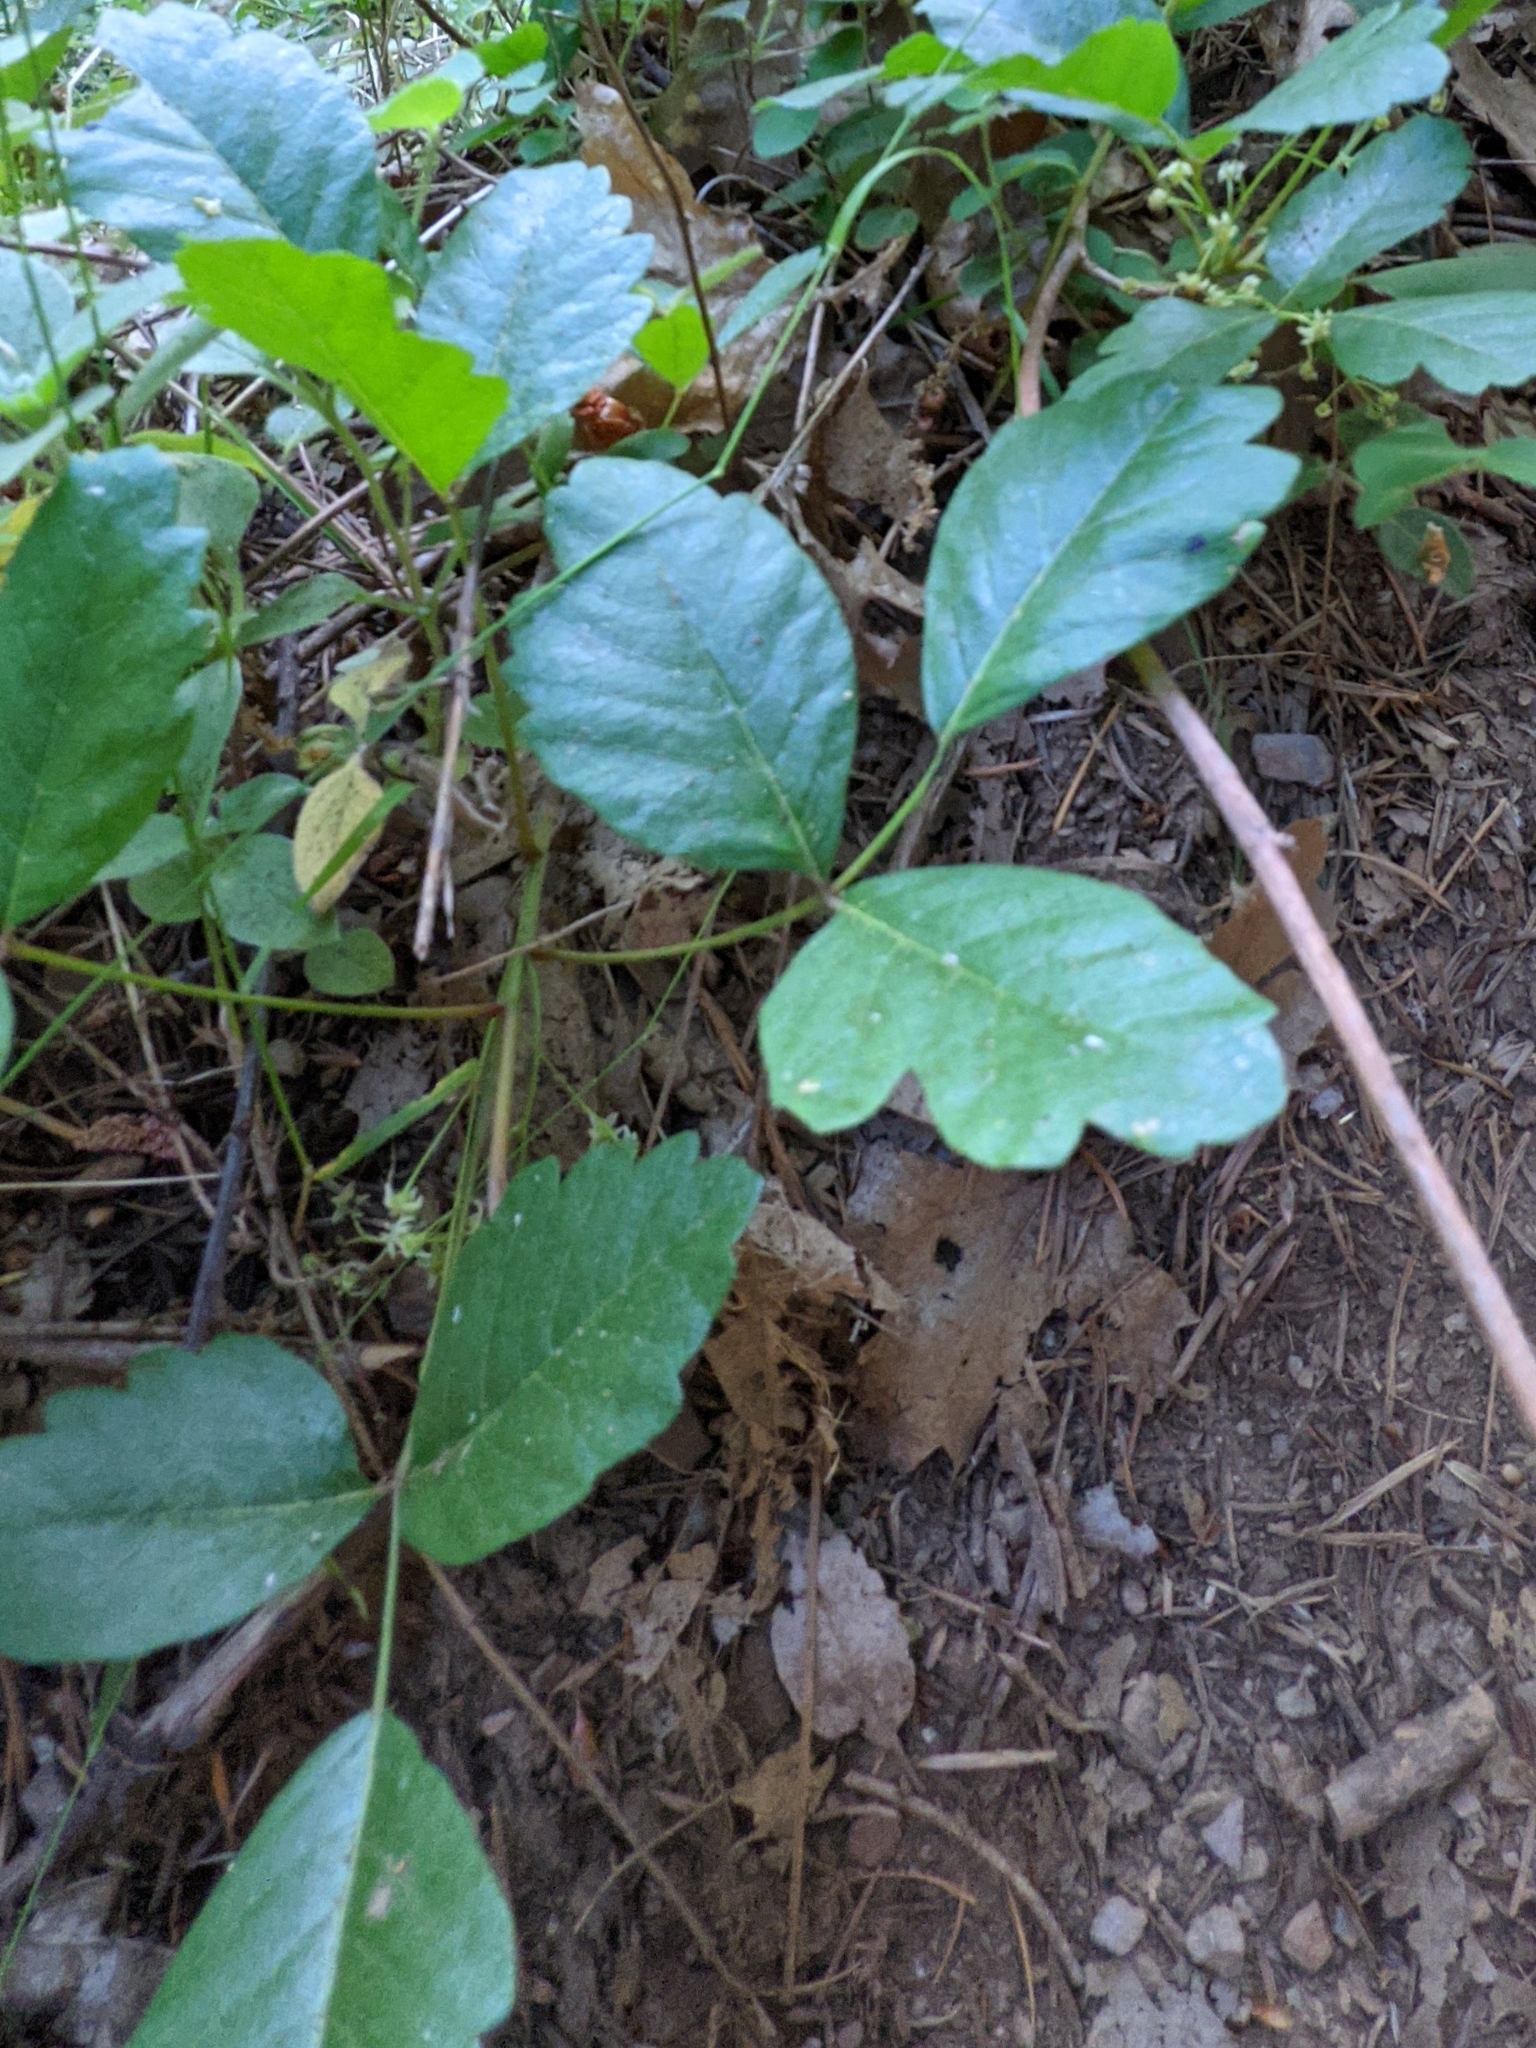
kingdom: Plantae
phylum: Tracheophyta
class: Magnoliopsida
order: Sapindales
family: Anacardiaceae
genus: Toxicodendron
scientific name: Toxicodendron diversilobum
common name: Pacific poison-oak
